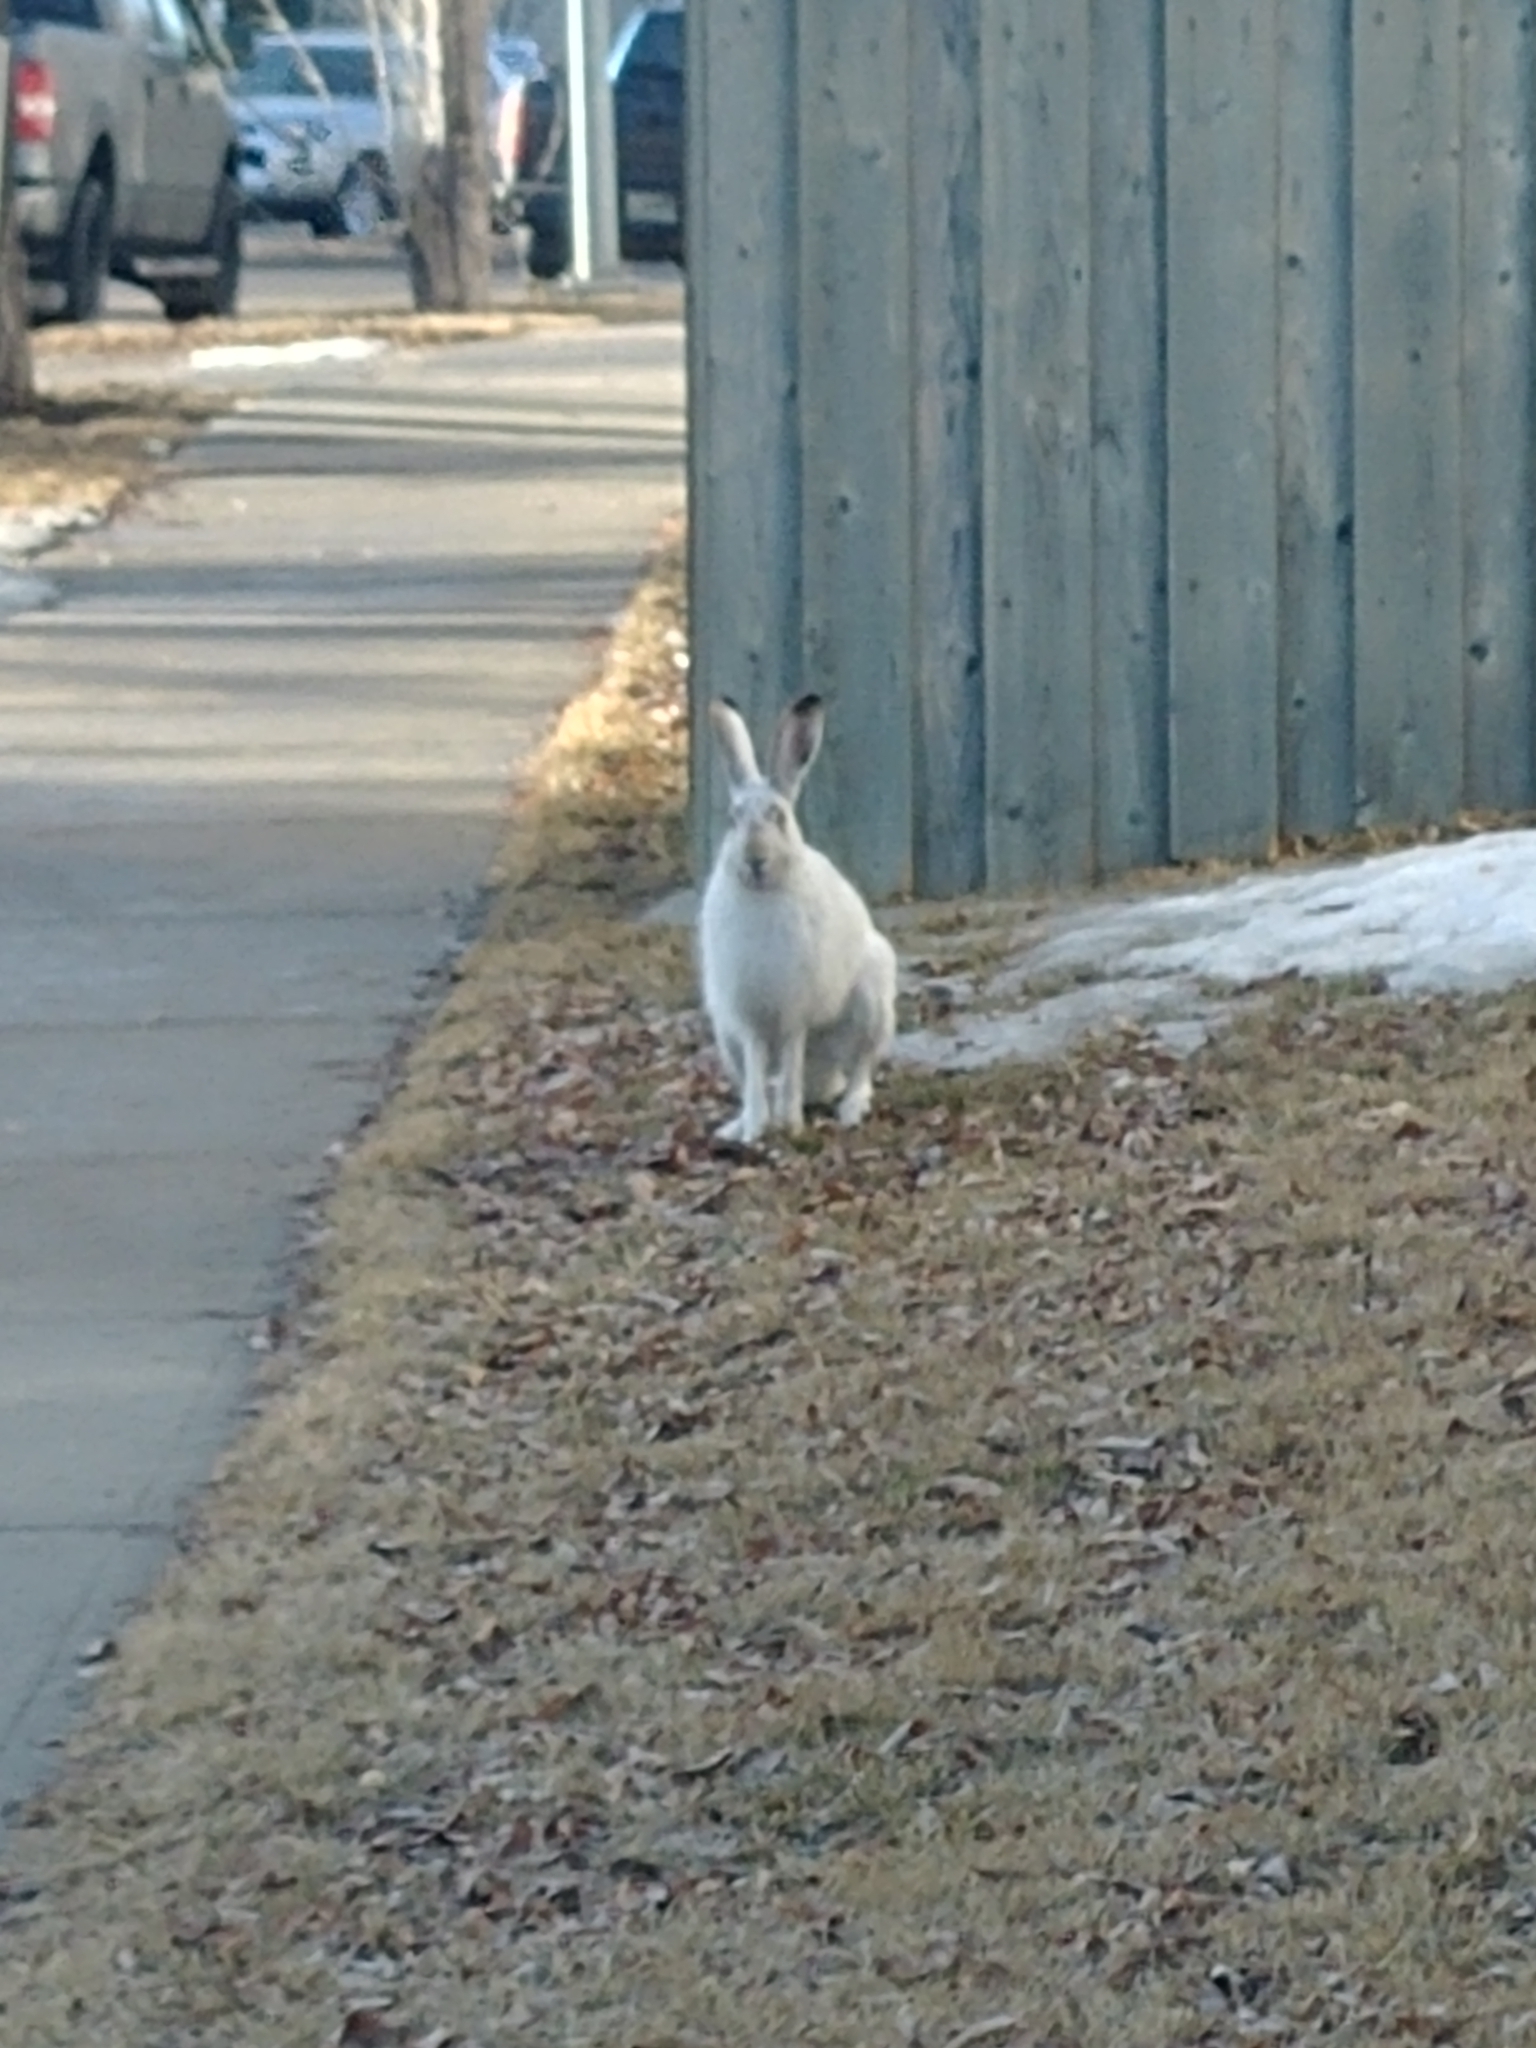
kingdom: Animalia
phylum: Chordata
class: Mammalia
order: Lagomorpha
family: Leporidae
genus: Lepus
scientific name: Lepus townsendii
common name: White-tailed jackrabbit
